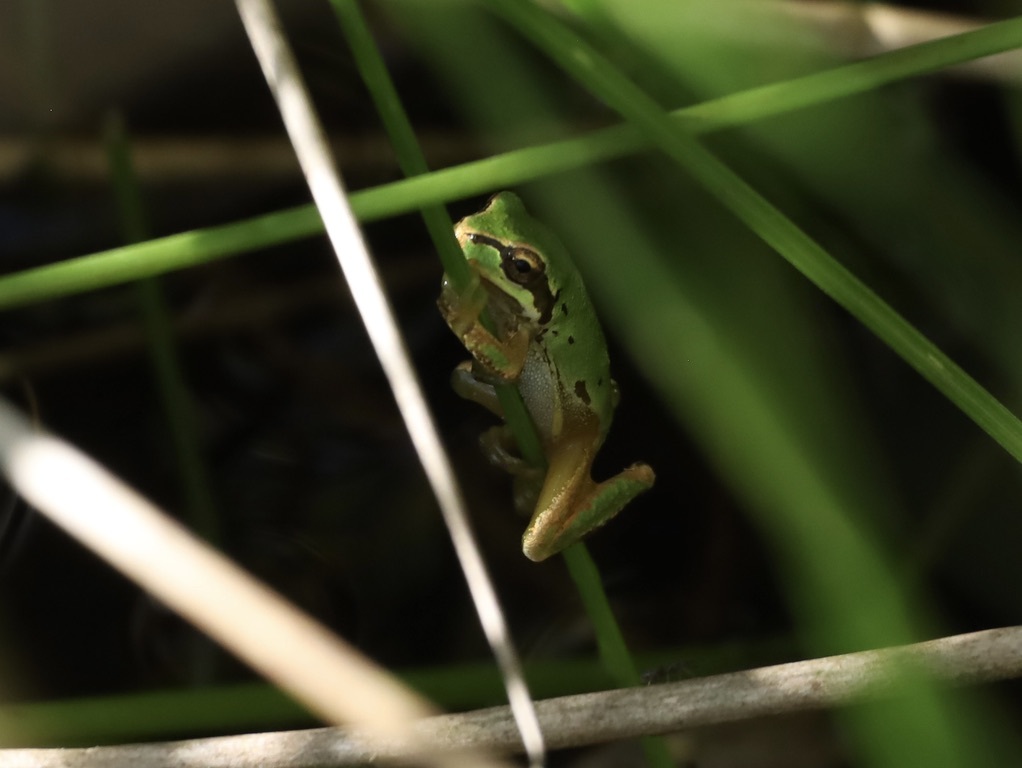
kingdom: Animalia
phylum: Chordata
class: Amphibia
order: Anura
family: Hylidae
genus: Pseudacris
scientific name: Pseudacris regilla
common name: Pacific chorus frog
